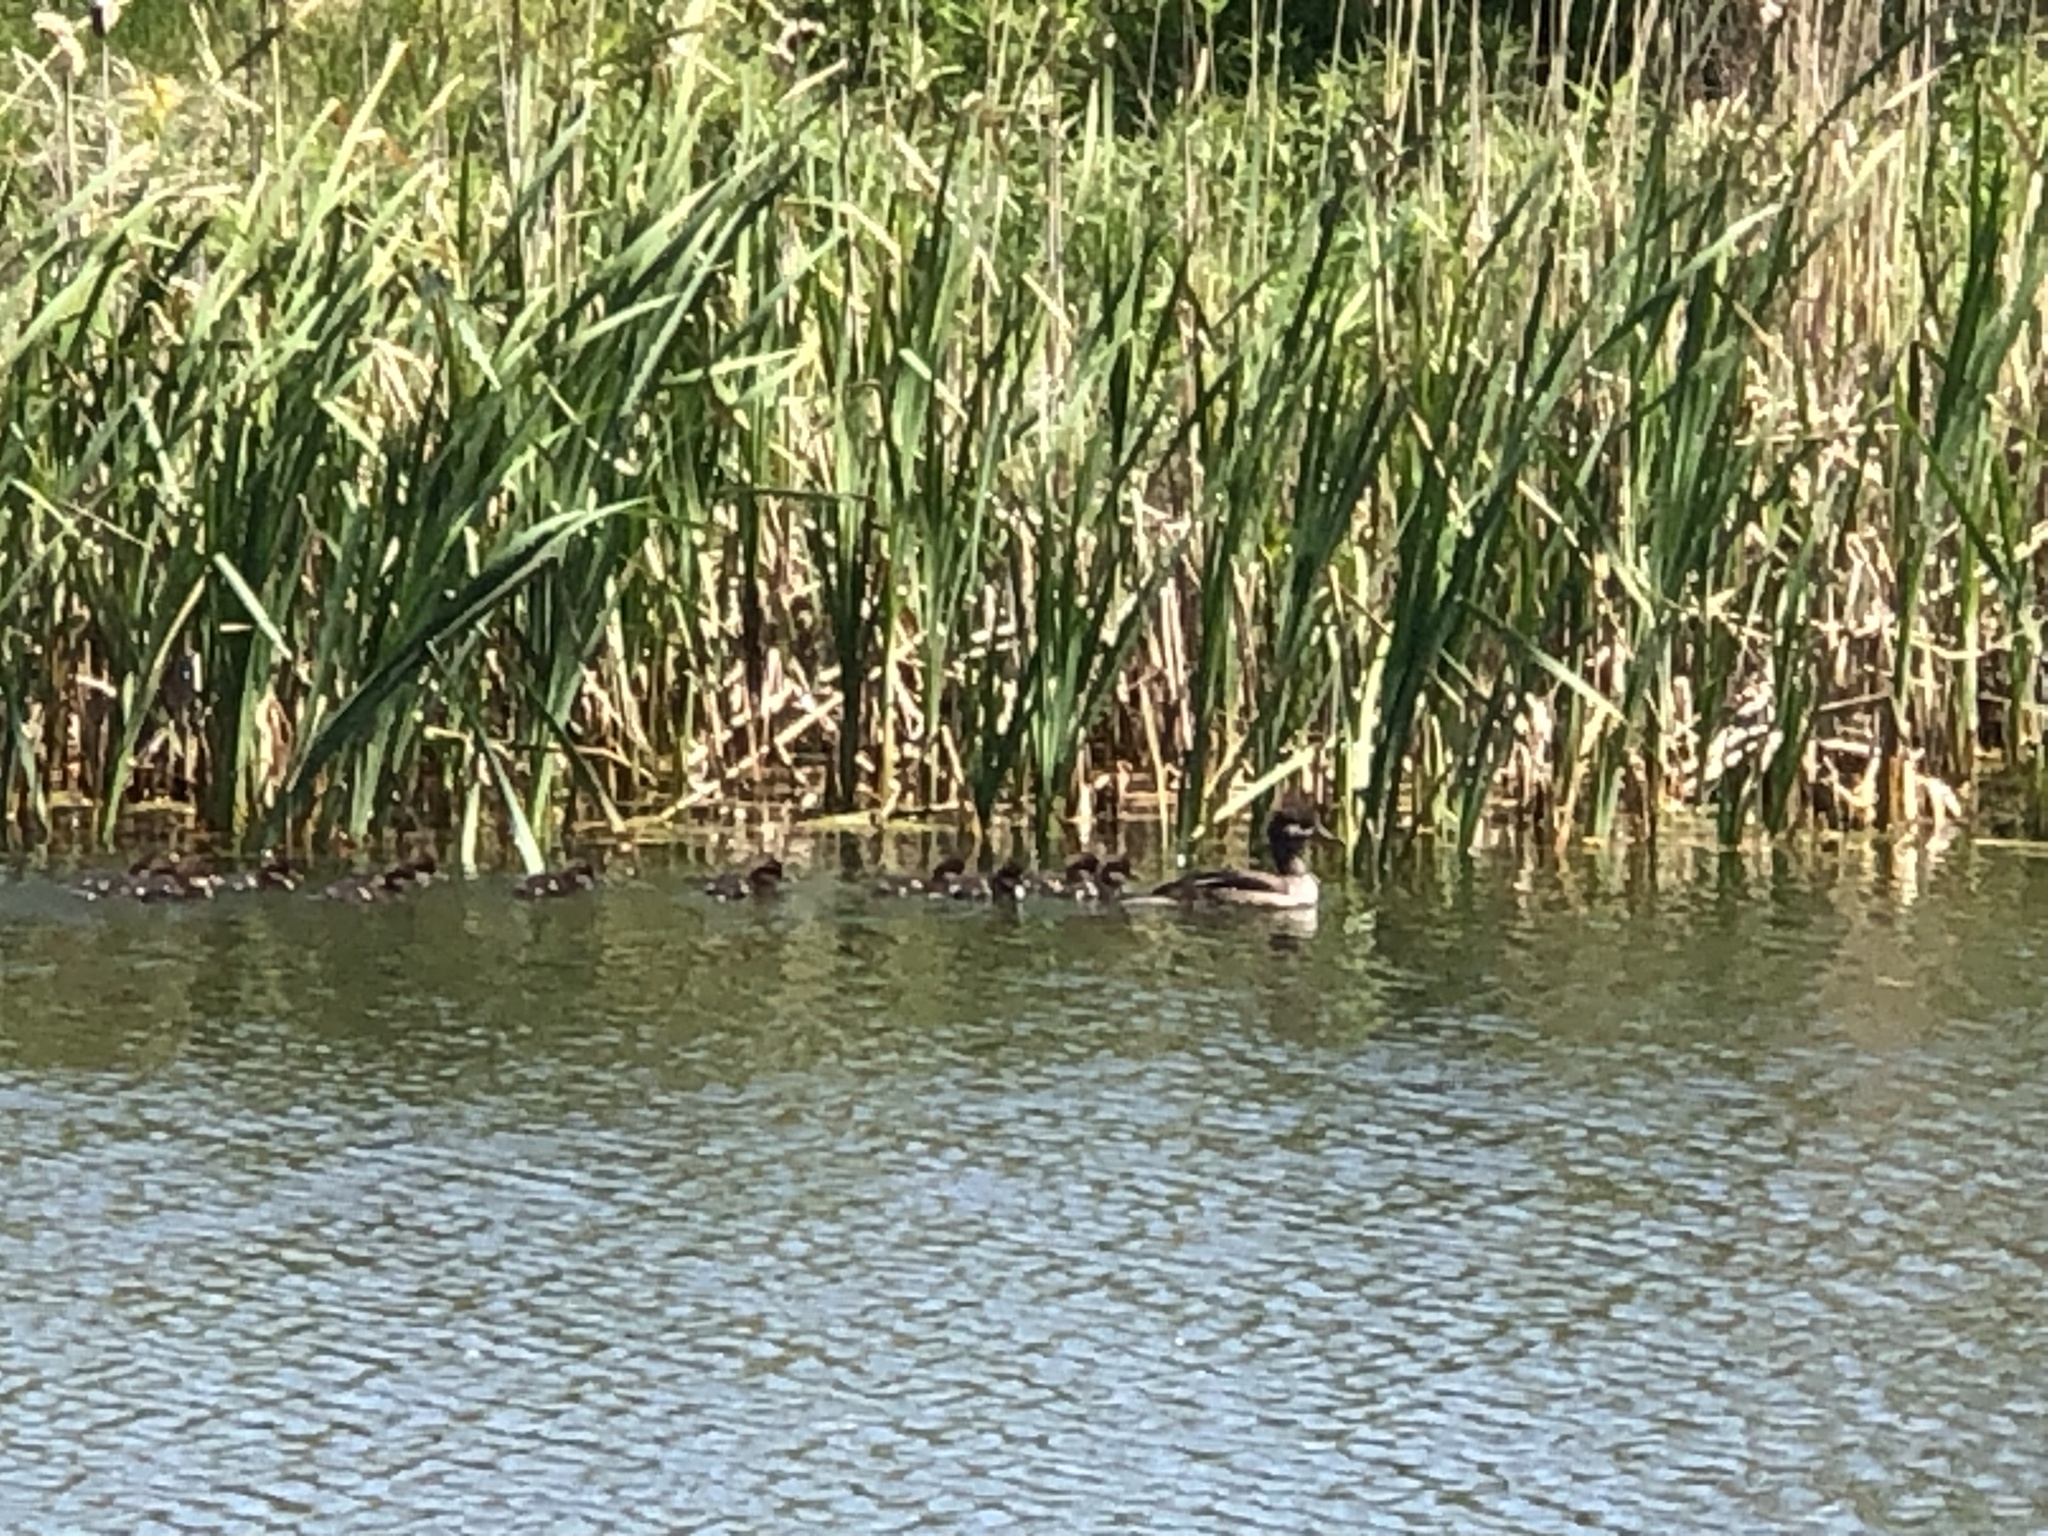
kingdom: Animalia
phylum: Chordata
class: Aves
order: Anseriformes
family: Anatidae
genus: Lophodytes
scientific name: Lophodytes cucullatus
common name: Hooded merganser
